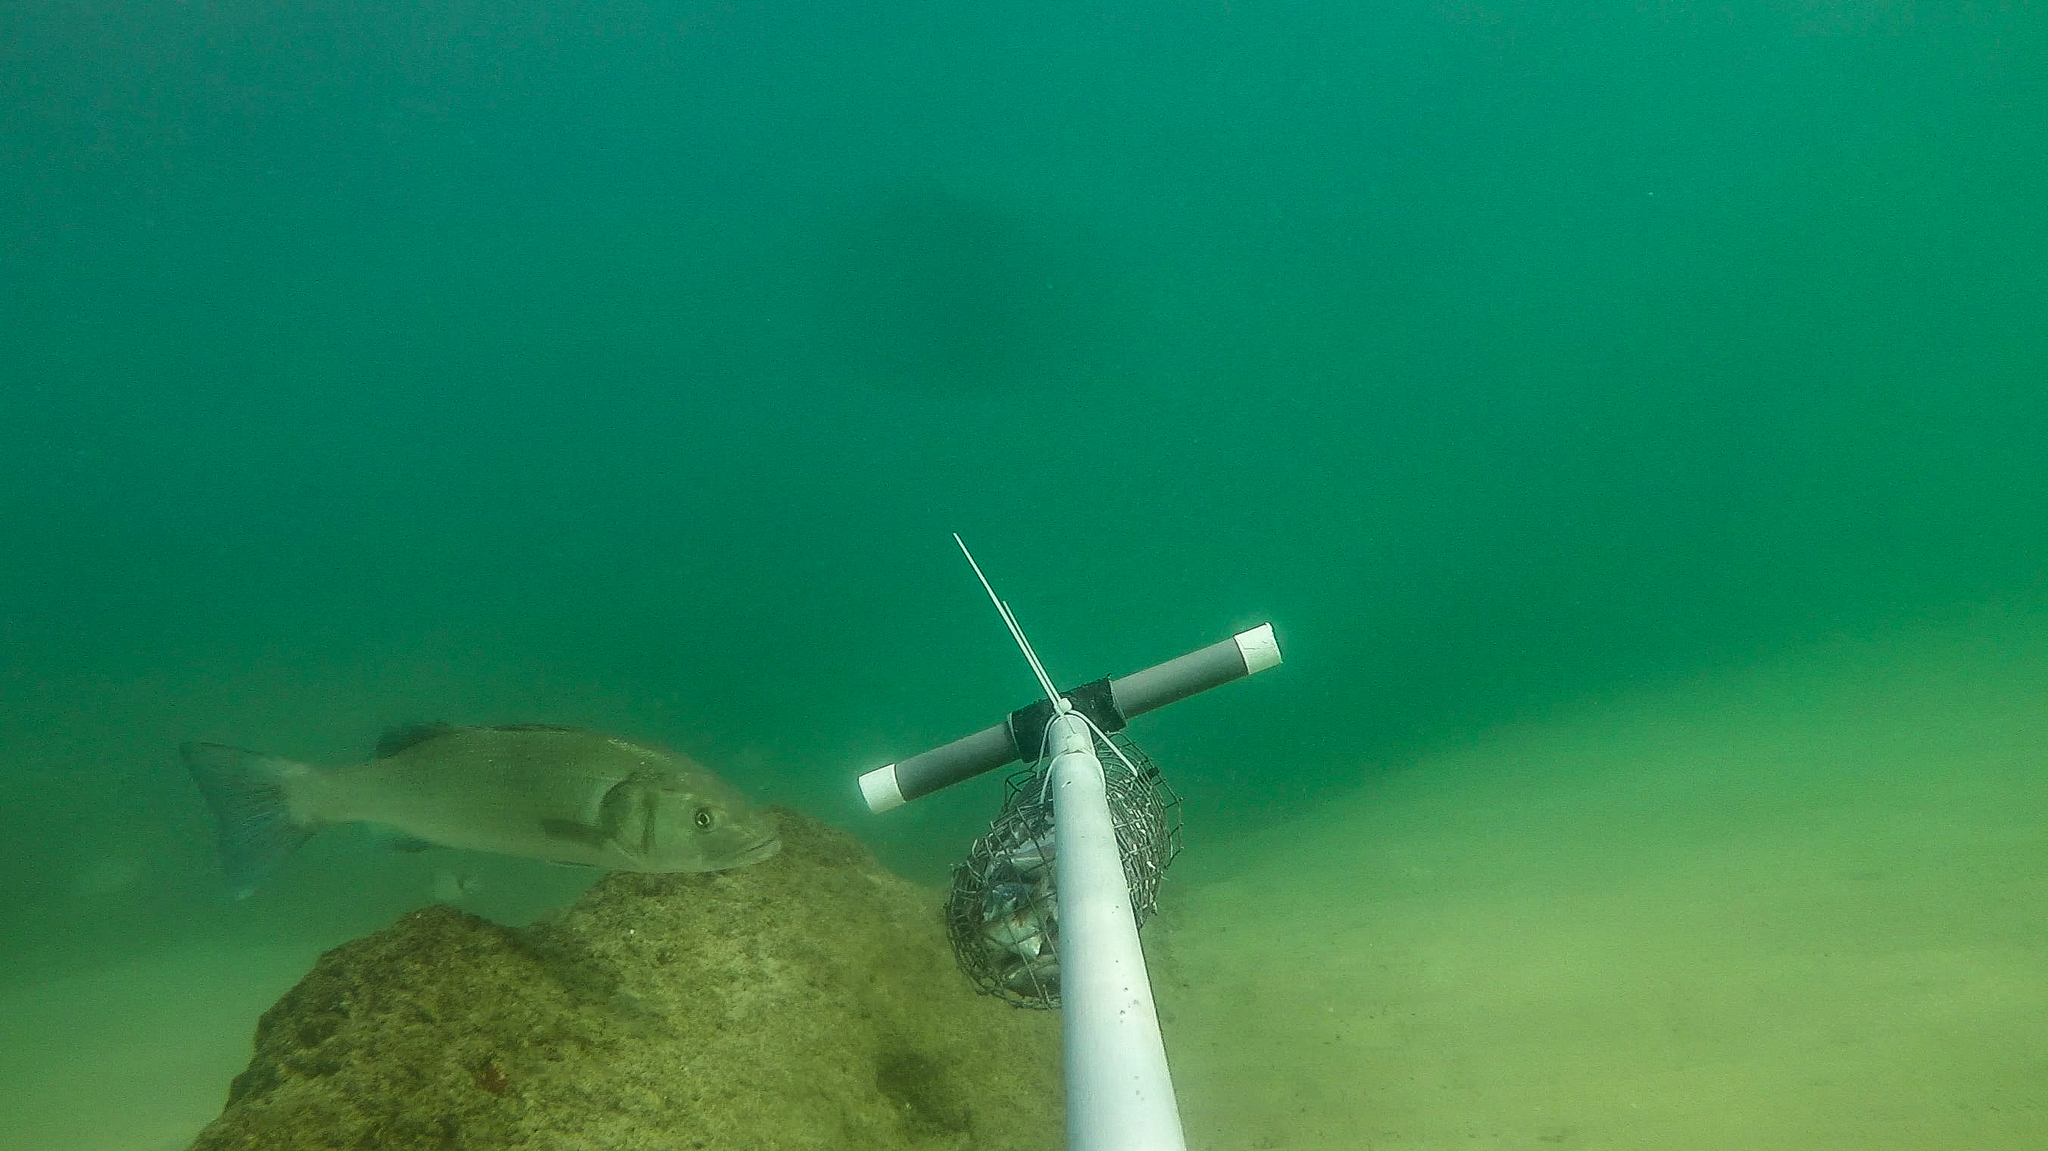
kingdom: Animalia
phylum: Chordata
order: Perciformes
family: Moronidae
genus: Dicentrarchus
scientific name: Dicentrarchus labrax
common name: European seabass
